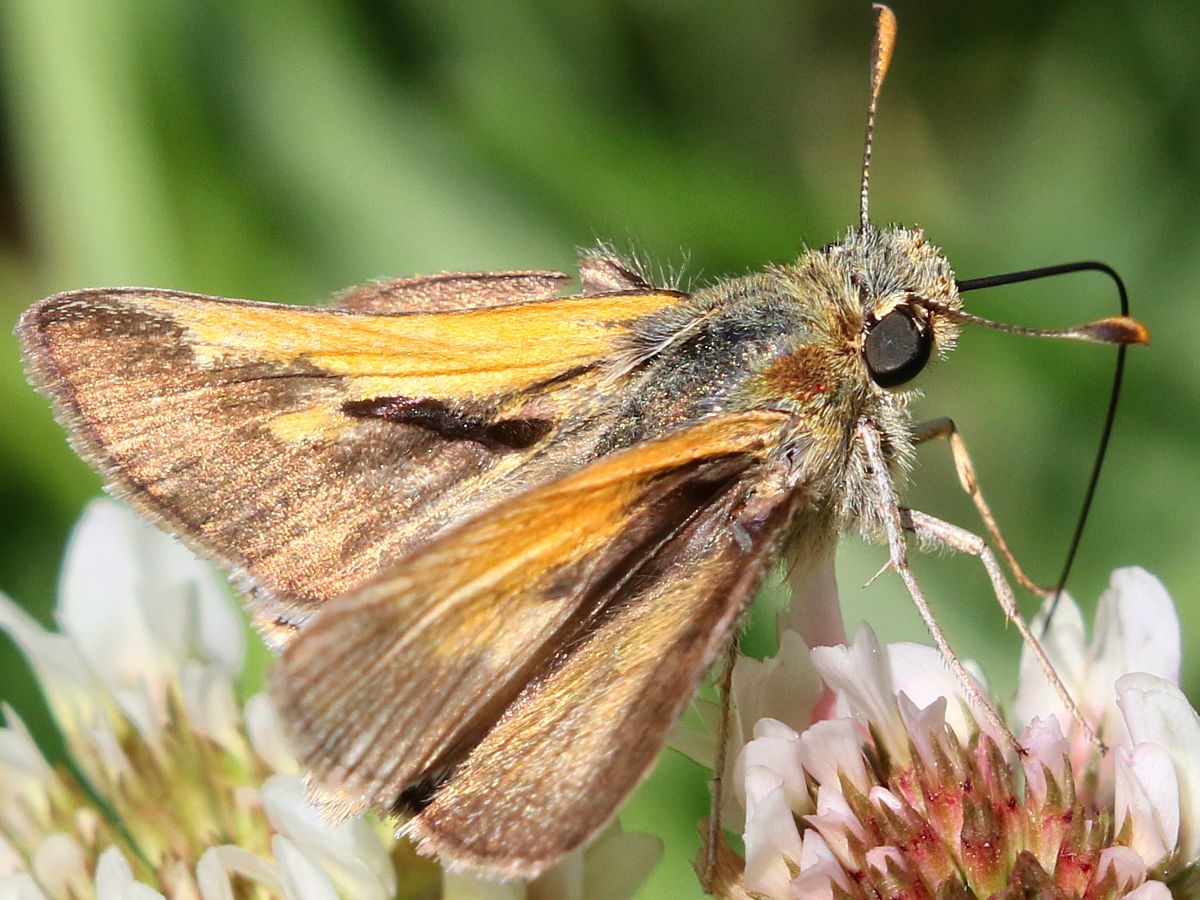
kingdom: Animalia
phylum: Arthropoda
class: Insecta
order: Lepidoptera
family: Hesperiidae
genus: Polites
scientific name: Polites themistocles
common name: Tawny-edged skipper
